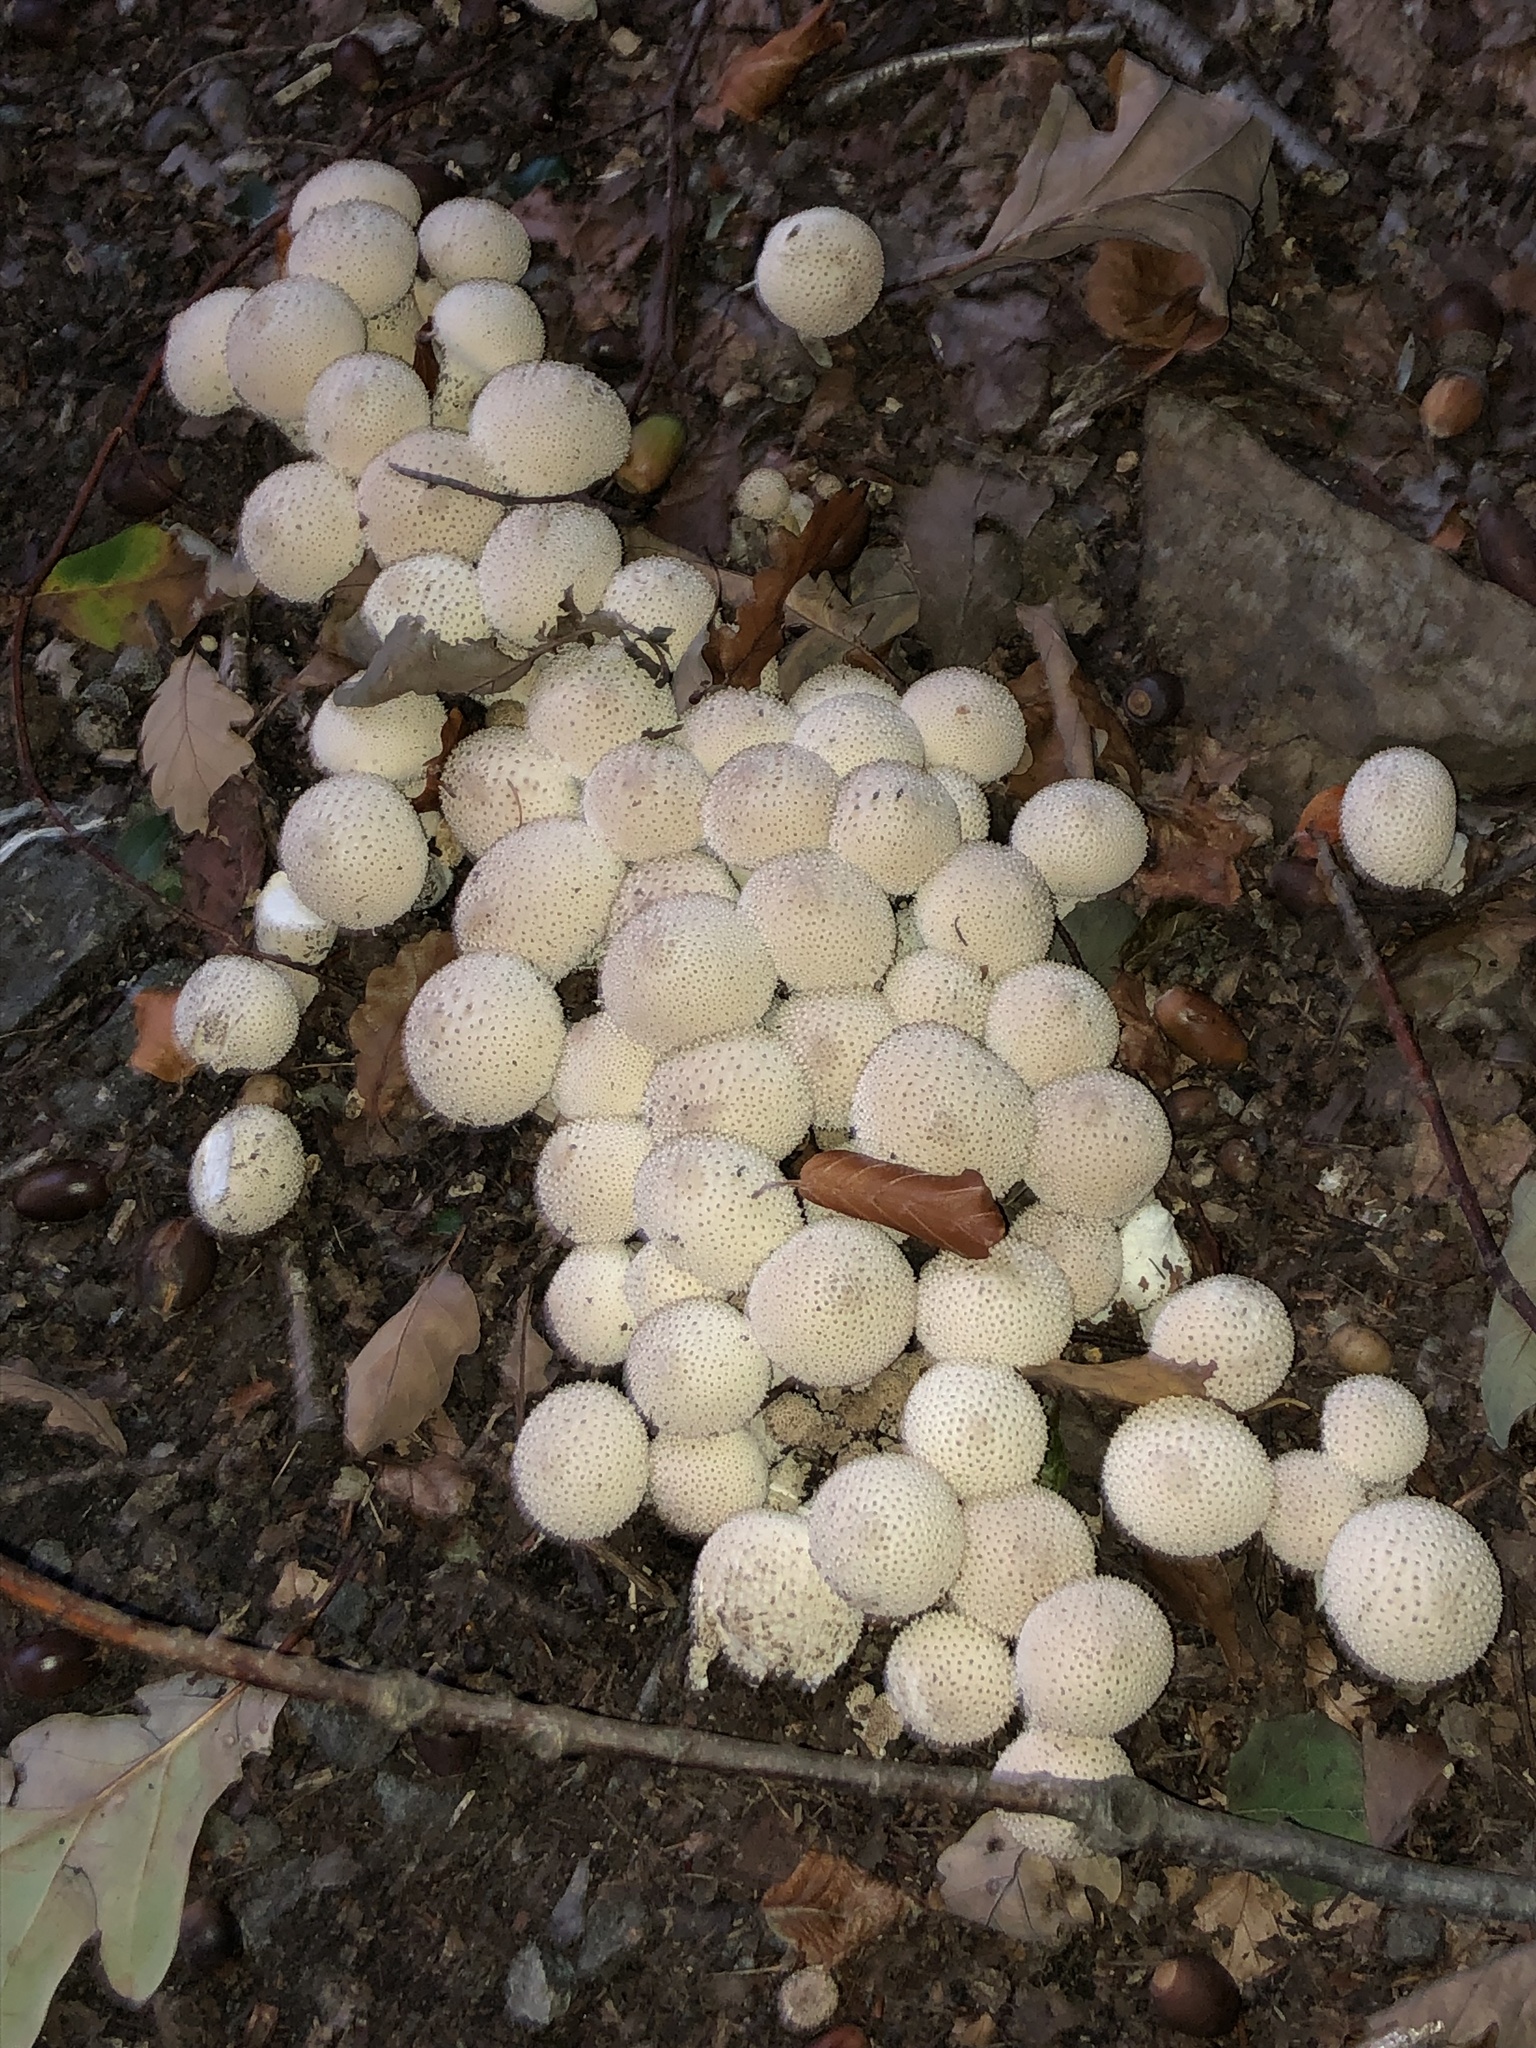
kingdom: Fungi
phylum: Basidiomycota
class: Agaricomycetes
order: Agaricales
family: Lycoperdaceae
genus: Lycoperdon
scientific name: Lycoperdon perlatum
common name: Common puffball
